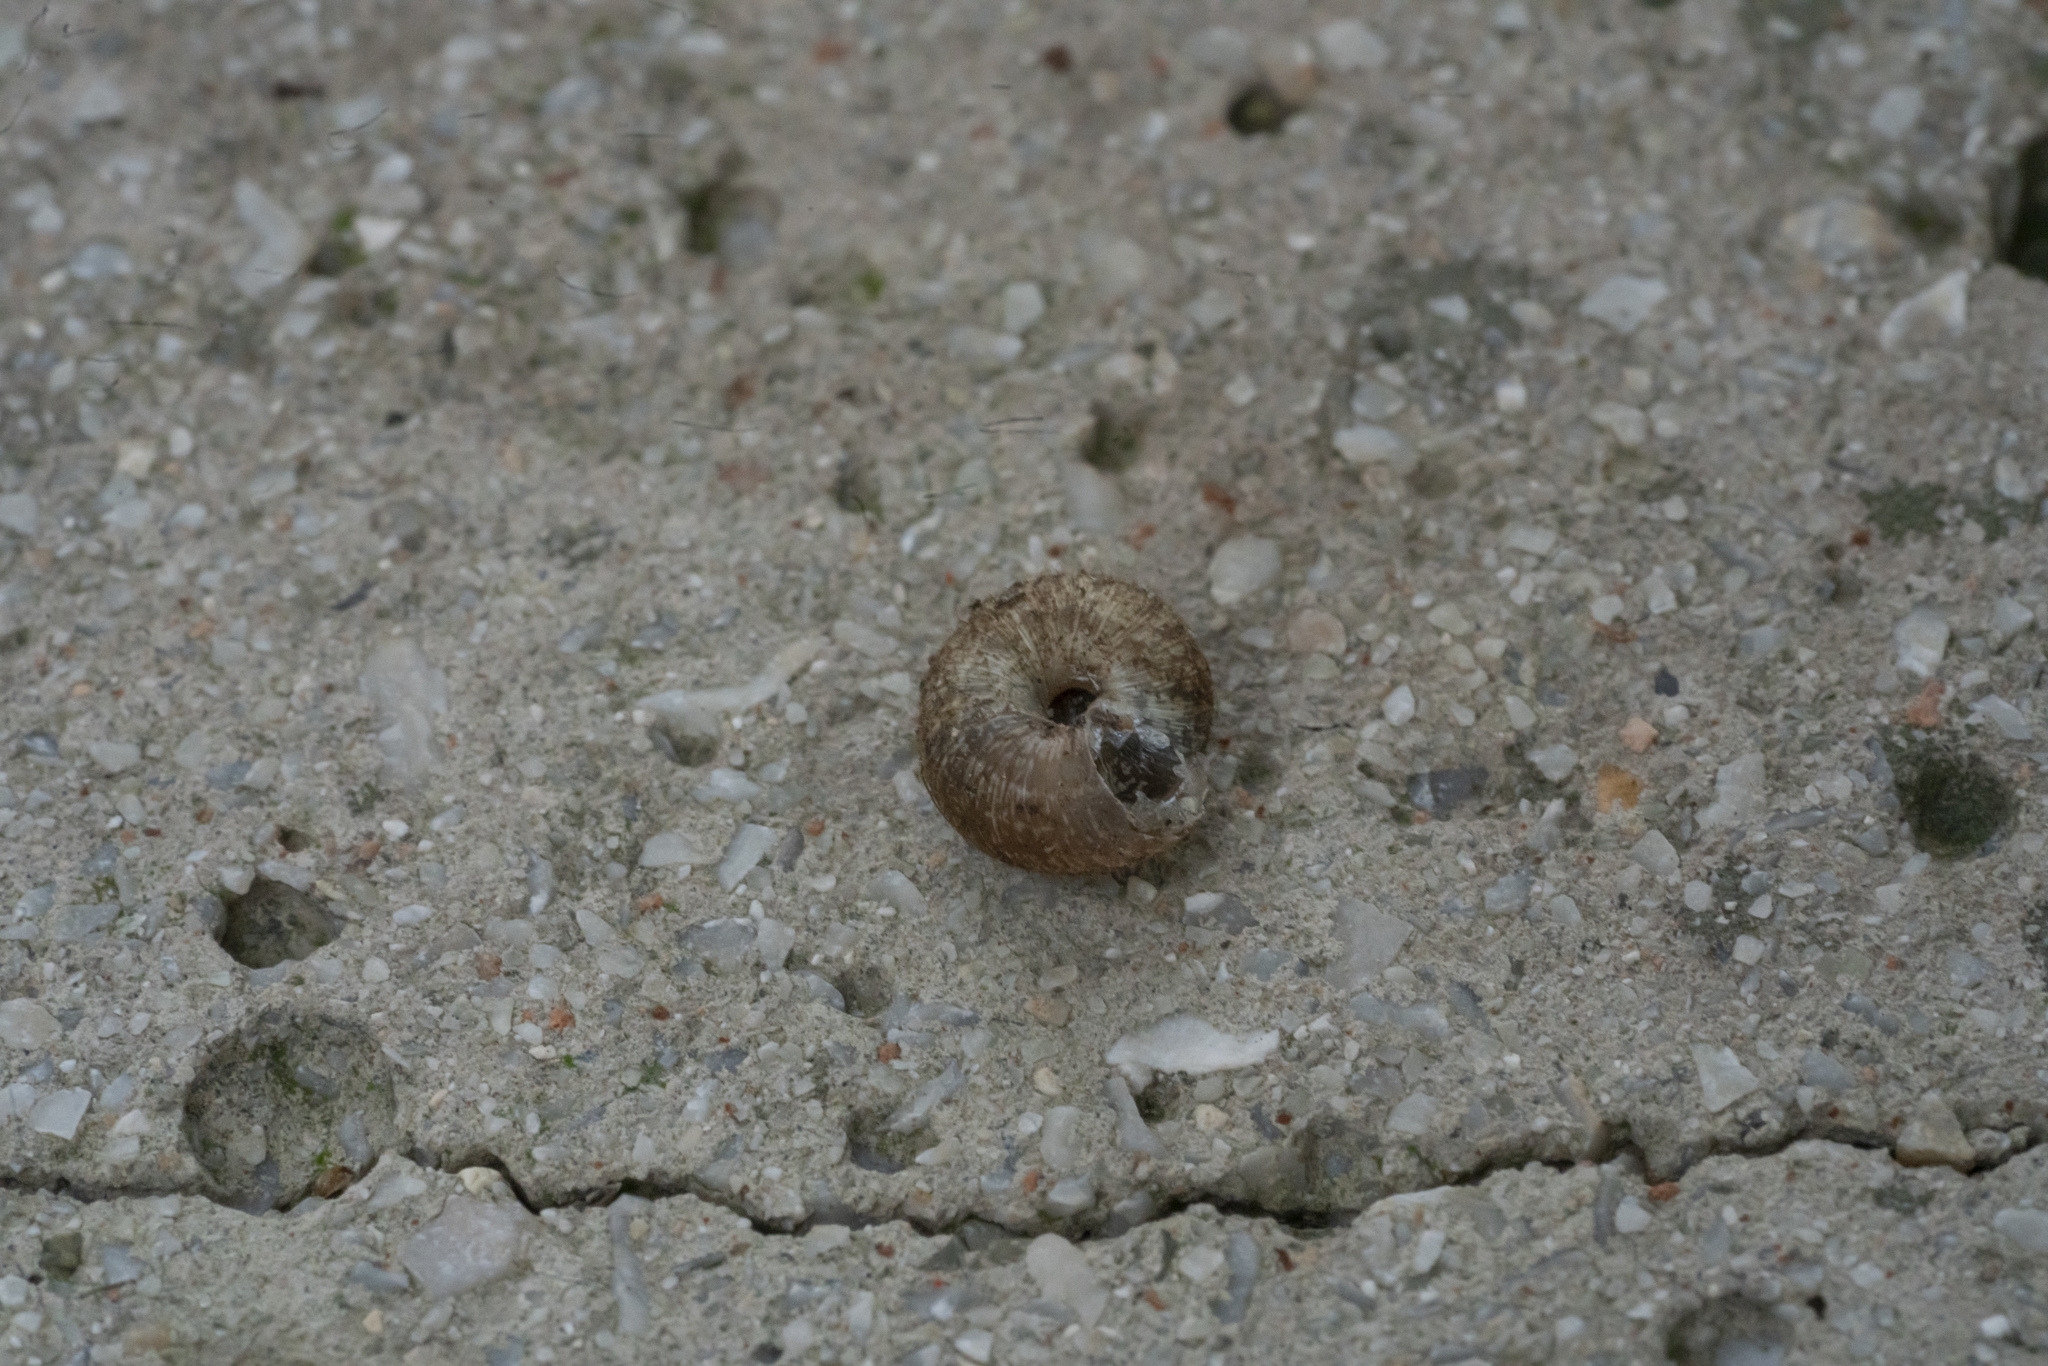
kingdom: Animalia
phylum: Mollusca
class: Gastropoda
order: Stylommatophora
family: Geomitridae
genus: Xerotricha
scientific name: Xerotricha conspurcata
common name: Snail
